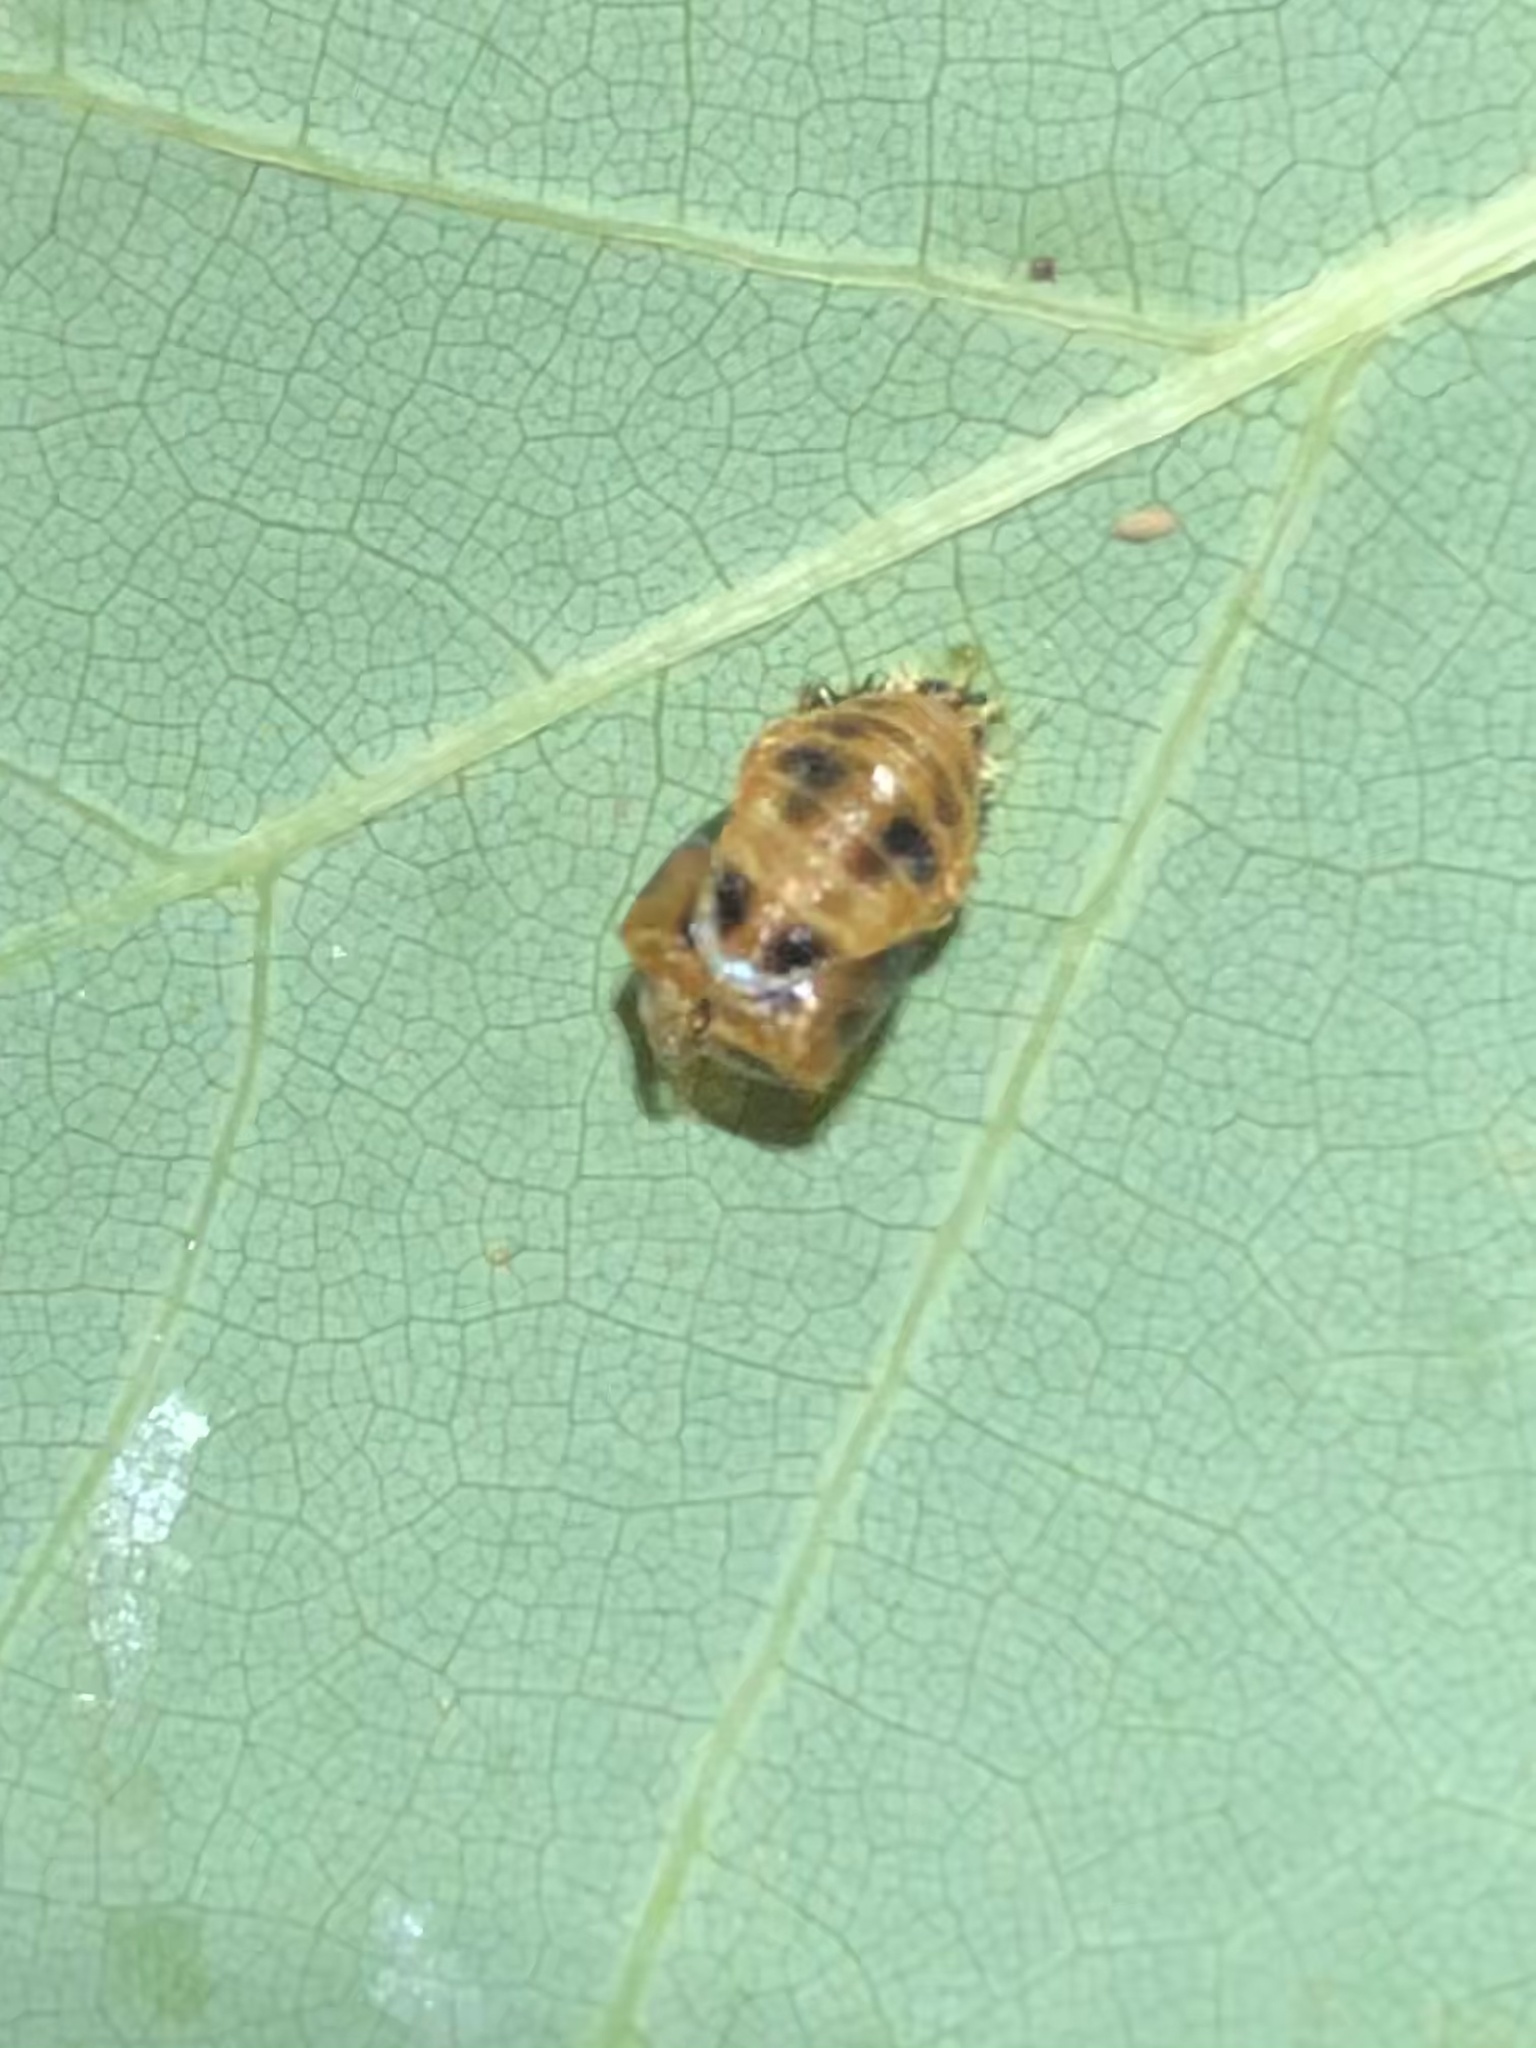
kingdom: Animalia
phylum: Arthropoda
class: Insecta
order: Coleoptera
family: Coccinellidae
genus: Harmonia
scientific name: Harmonia axyridis
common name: Harlequin ladybird
